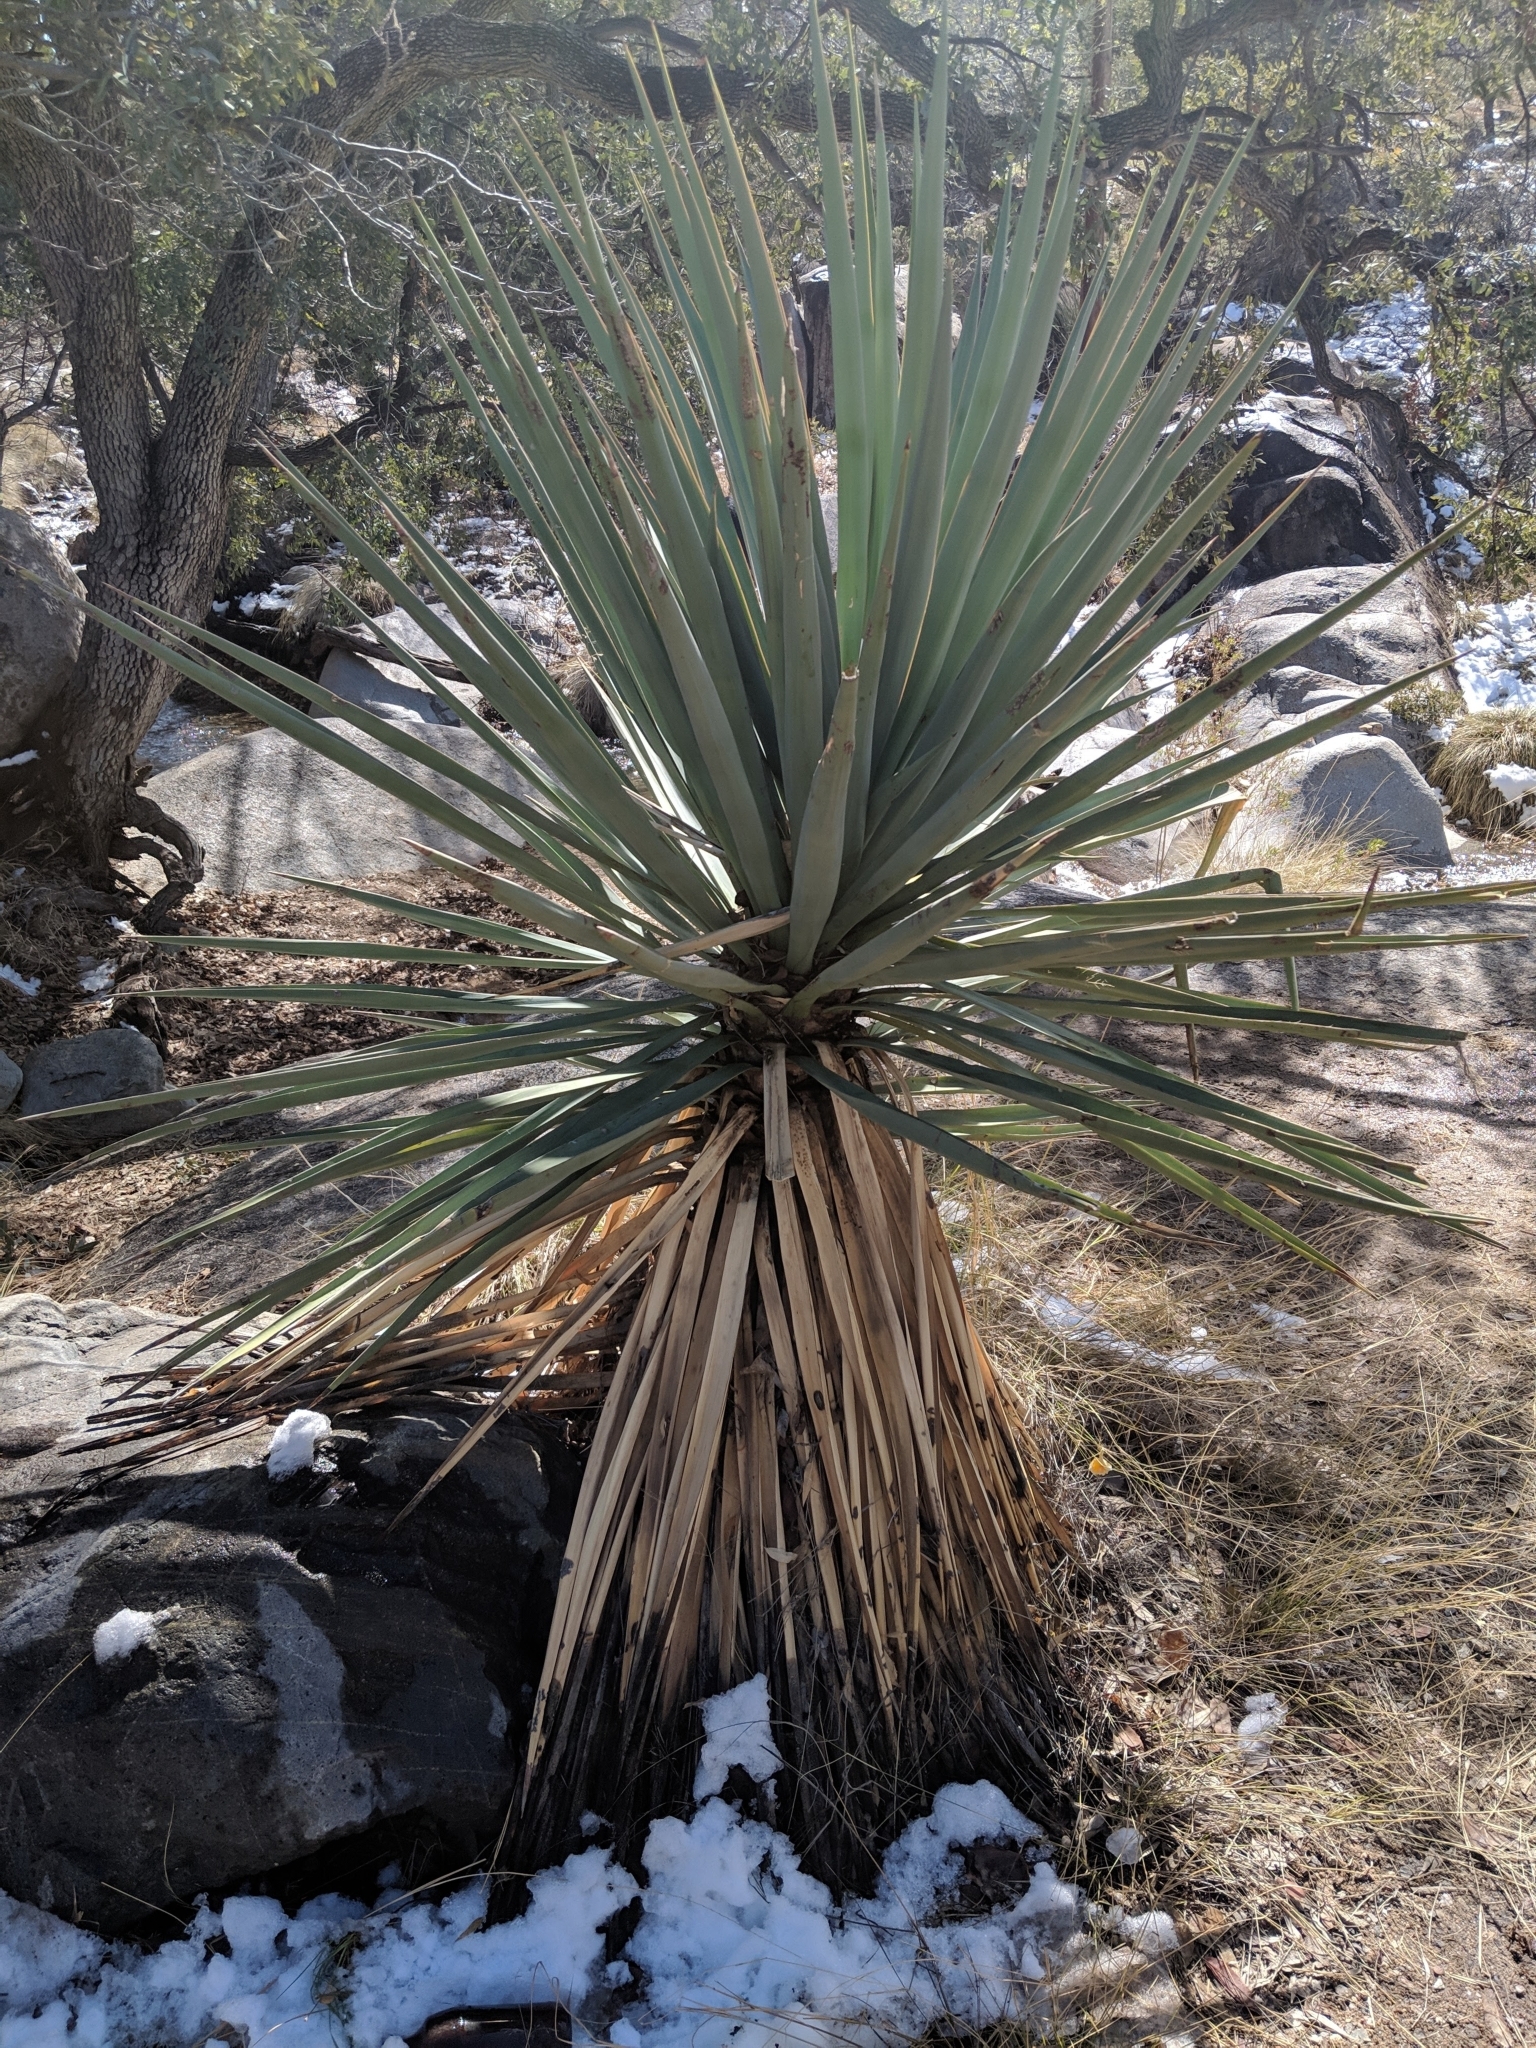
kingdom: Plantae
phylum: Tracheophyta
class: Liliopsida
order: Asparagales
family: Asparagaceae
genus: Yucca
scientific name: Yucca madrensis
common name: Hoary yucca
